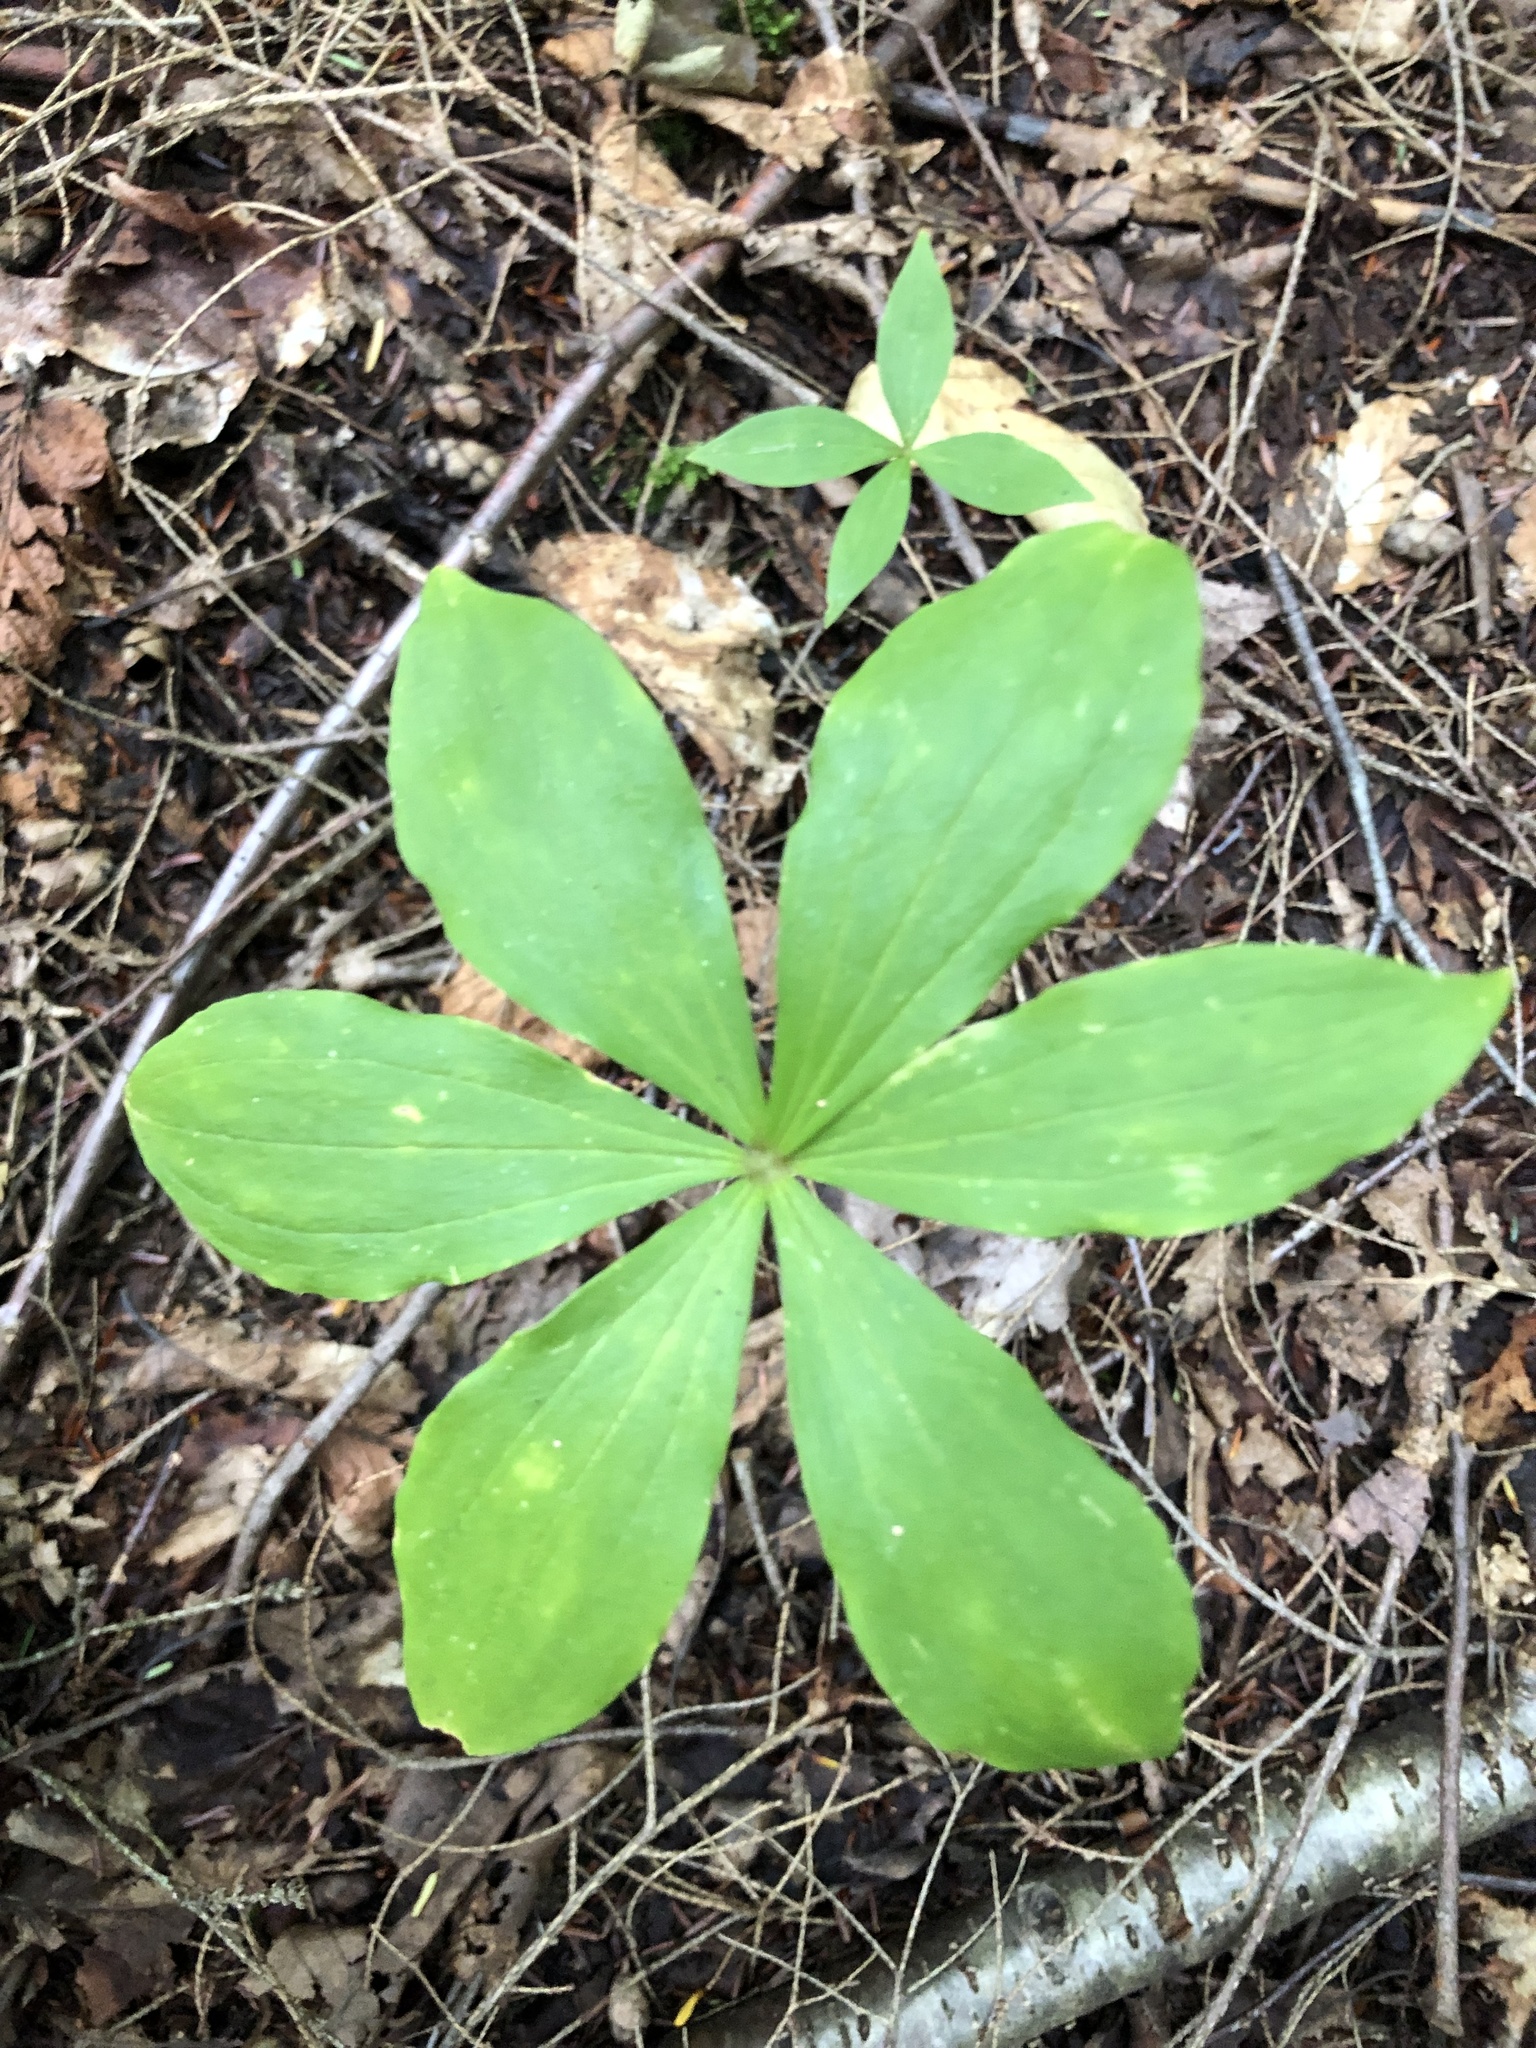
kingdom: Plantae
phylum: Tracheophyta
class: Liliopsida
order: Liliales
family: Liliaceae
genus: Medeola
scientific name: Medeola virginiana
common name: Indian cucumber-root
